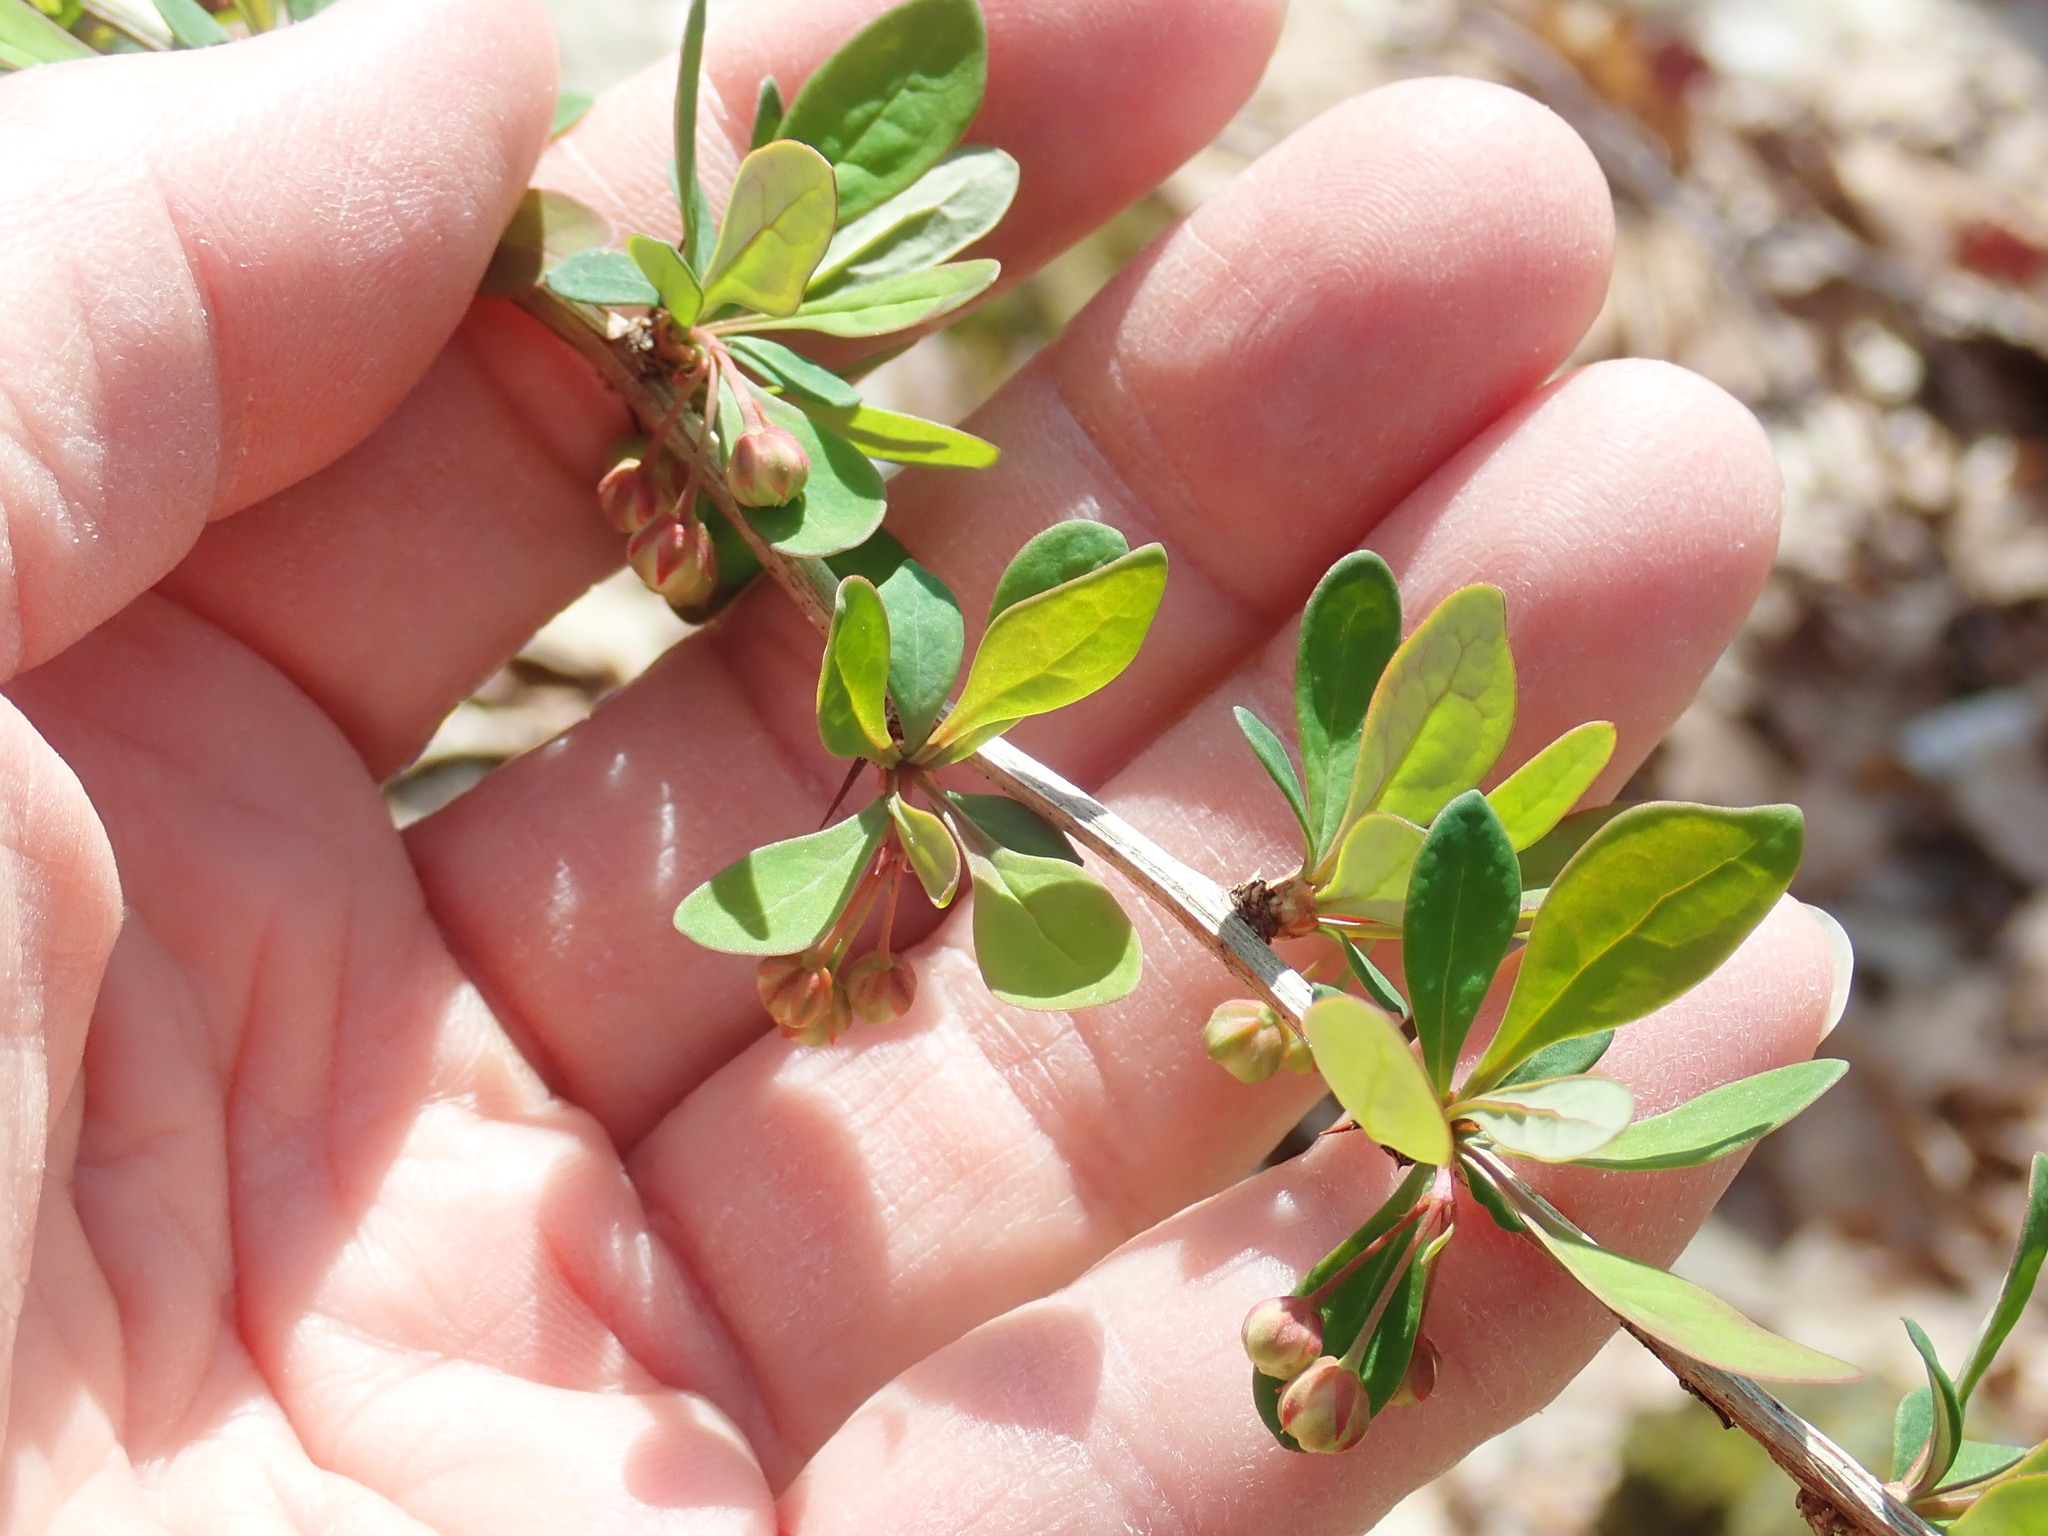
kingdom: Plantae
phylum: Tracheophyta
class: Magnoliopsida
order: Ranunculales
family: Berberidaceae
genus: Berberis
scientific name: Berberis thunbergii
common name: Japanese barberry
